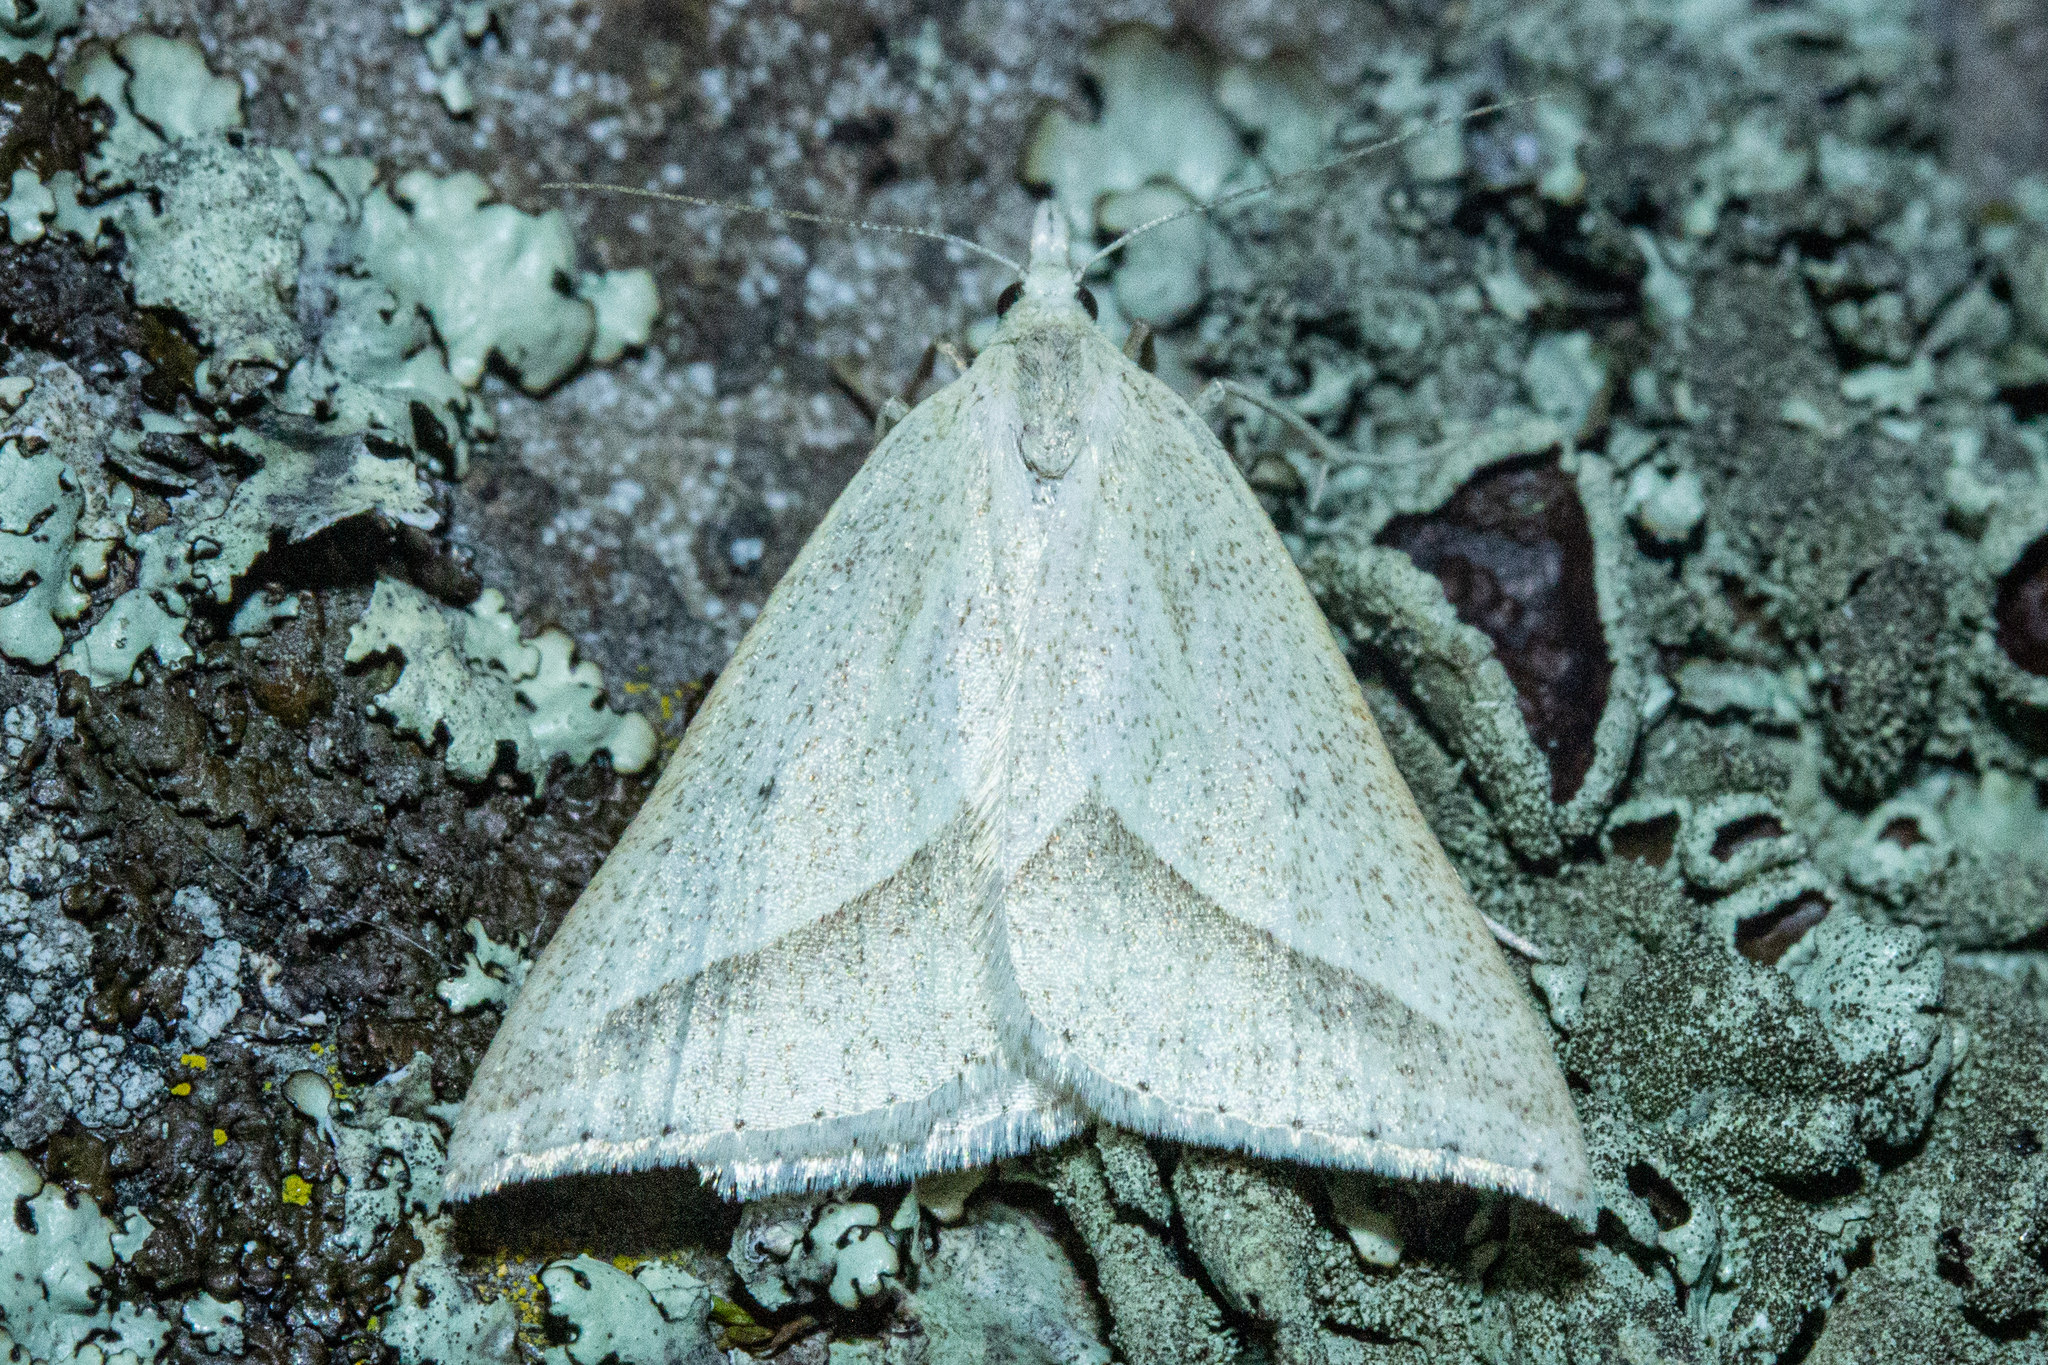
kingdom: Animalia
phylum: Arthropoda
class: Insecta
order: Lepidoptera
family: Geometridae
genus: Samana
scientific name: Samana acutata
